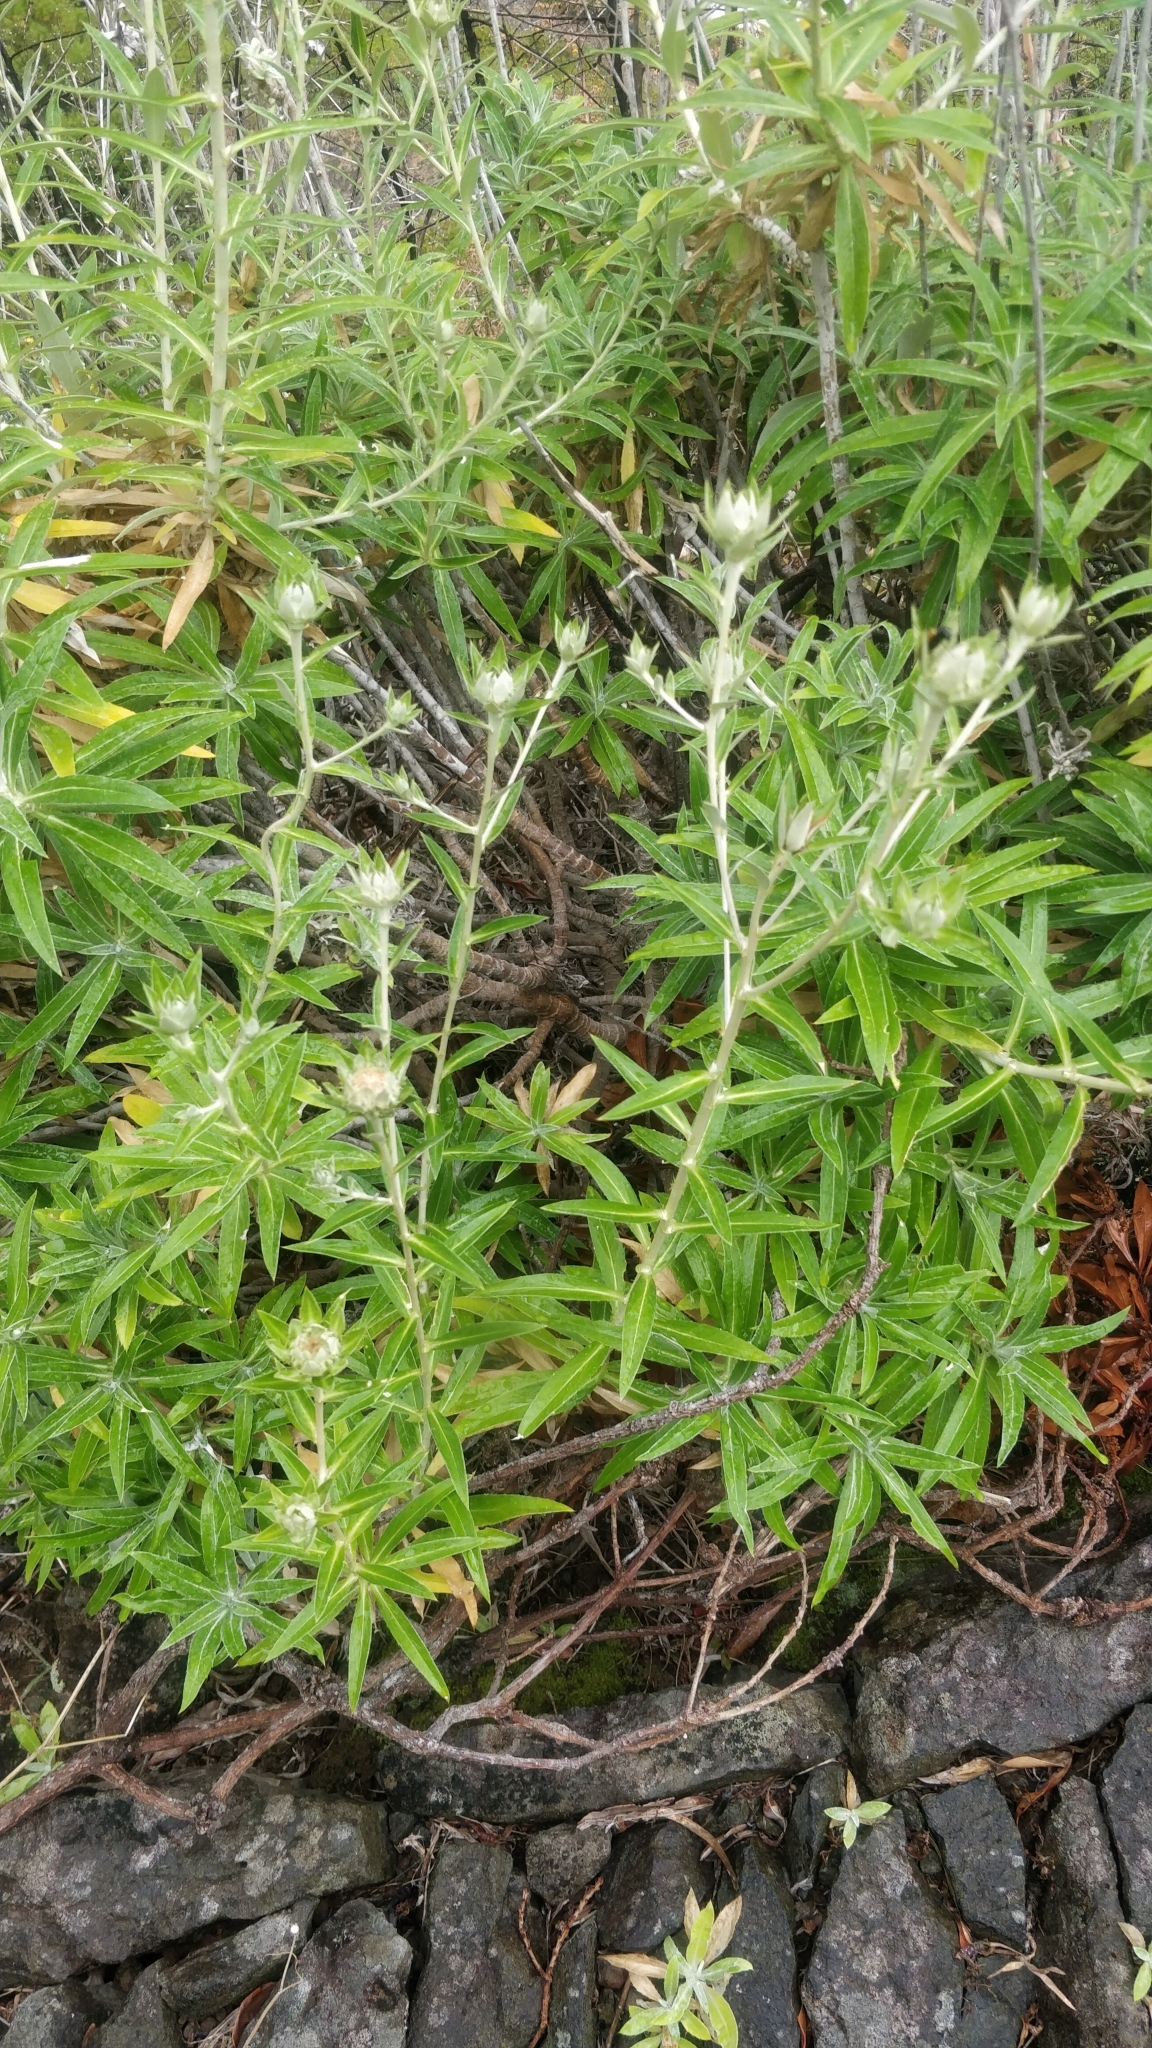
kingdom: Plantae
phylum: Tracheophyta
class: Magnoliopsida
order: Asterales
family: Asteraceae
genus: Carlina
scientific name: Carlina salicifolia
